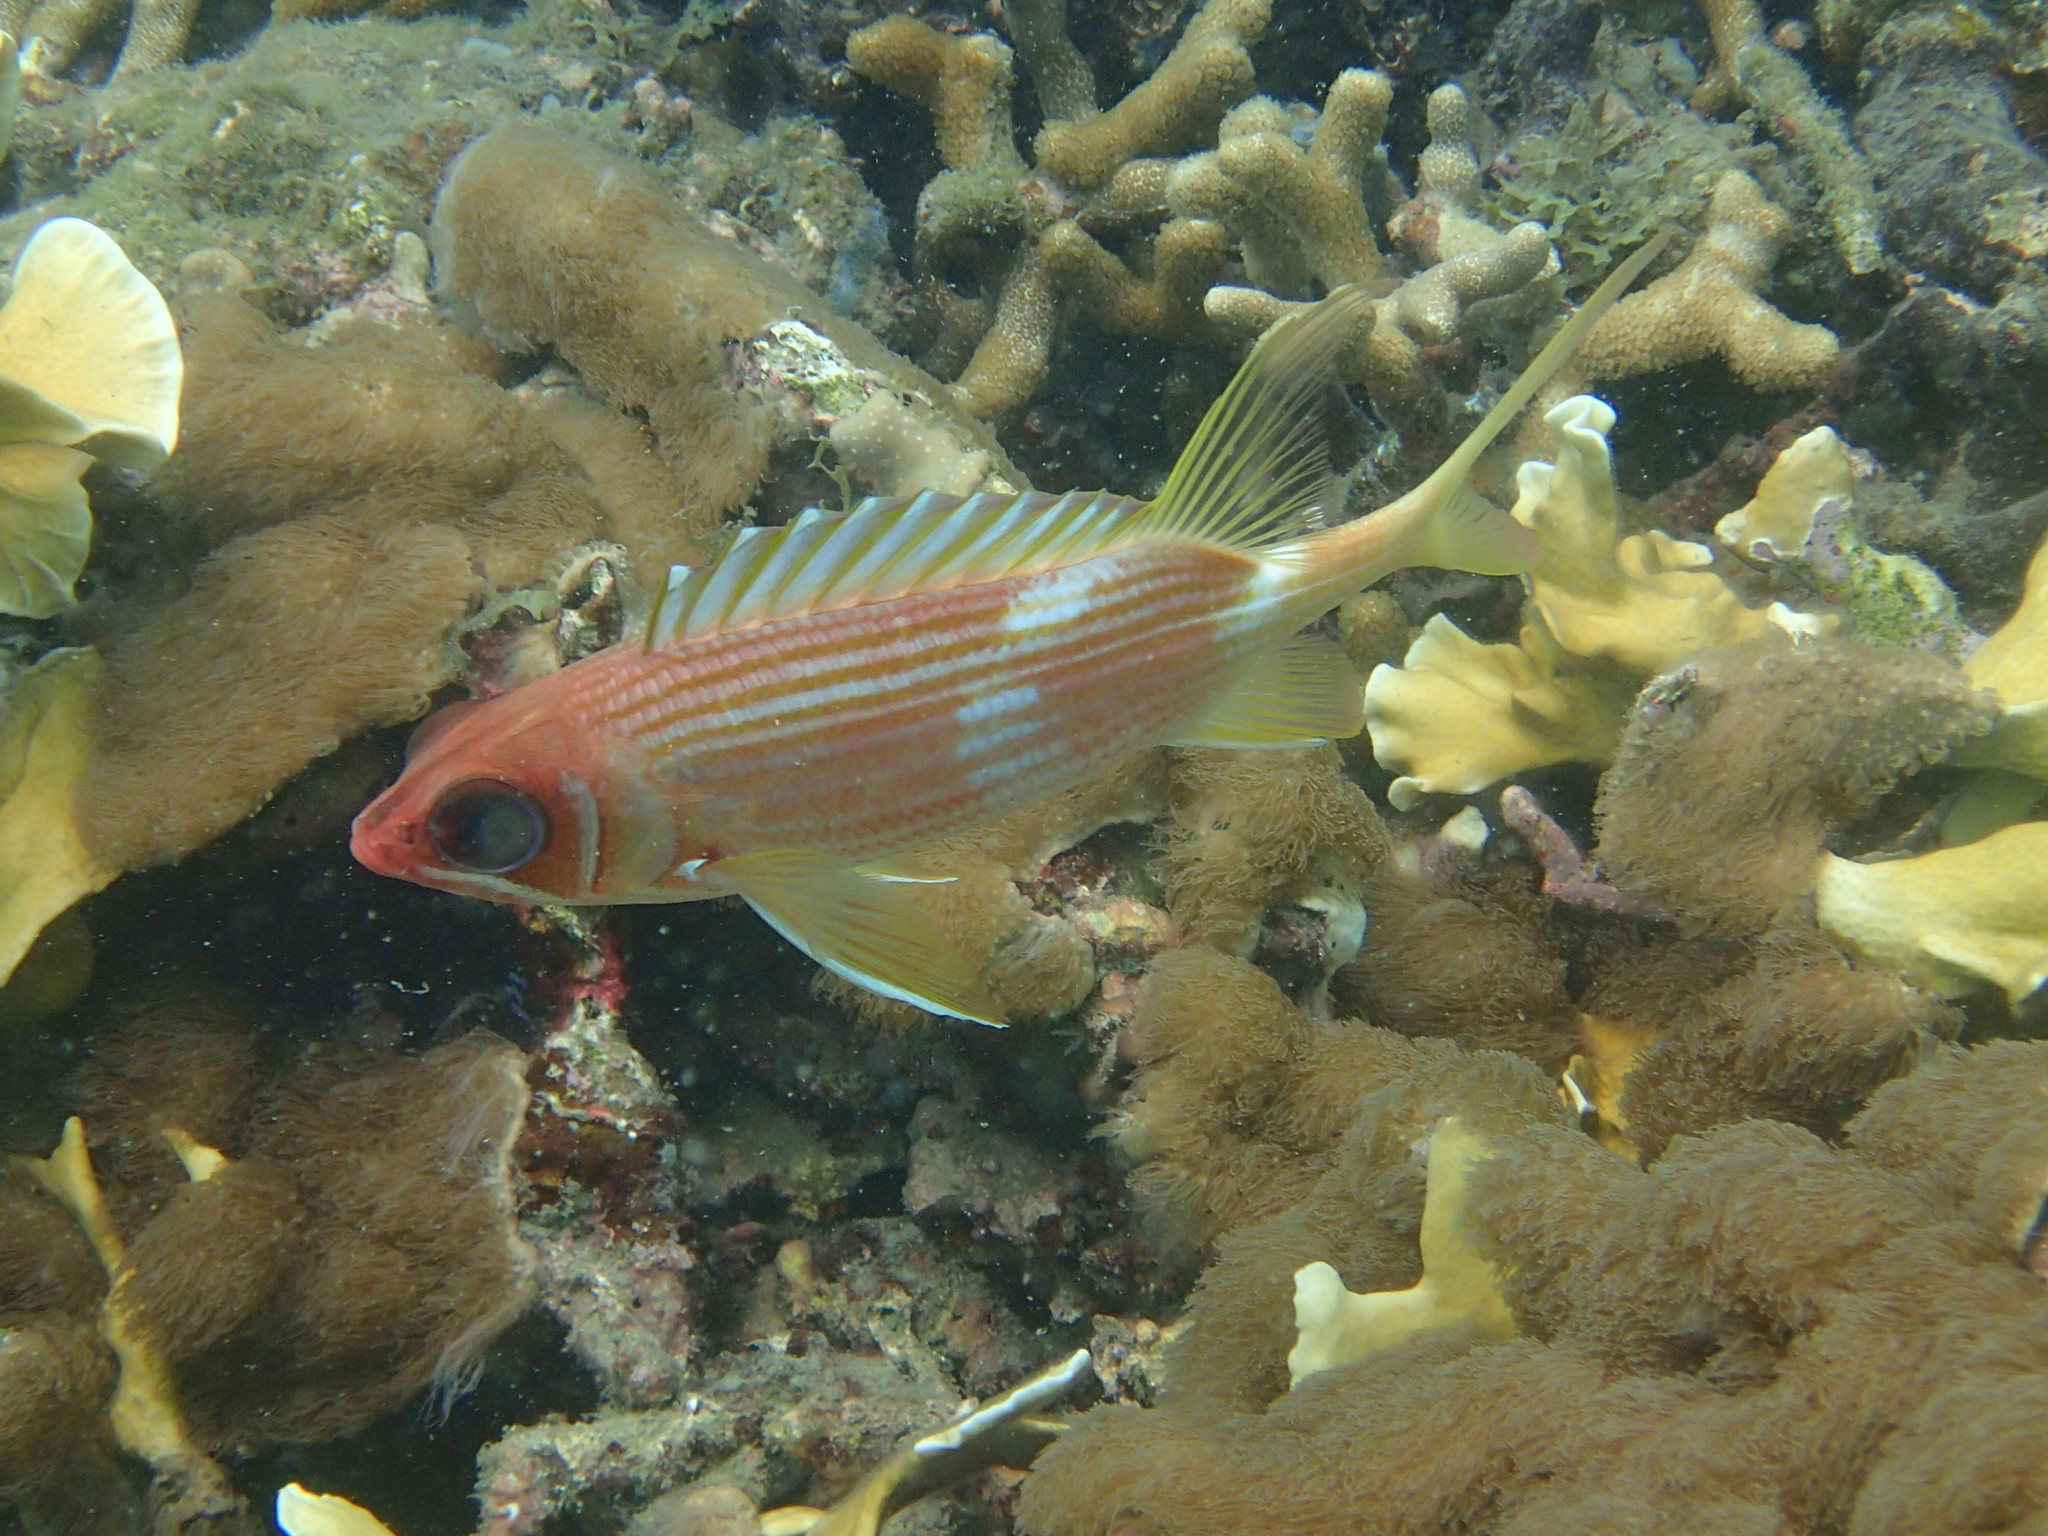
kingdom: Animalia
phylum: Chordata
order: Beryciformes
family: Holocentridae
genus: Holocentrus
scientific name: Holocentrus rufus
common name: Longspine squirrelfish
